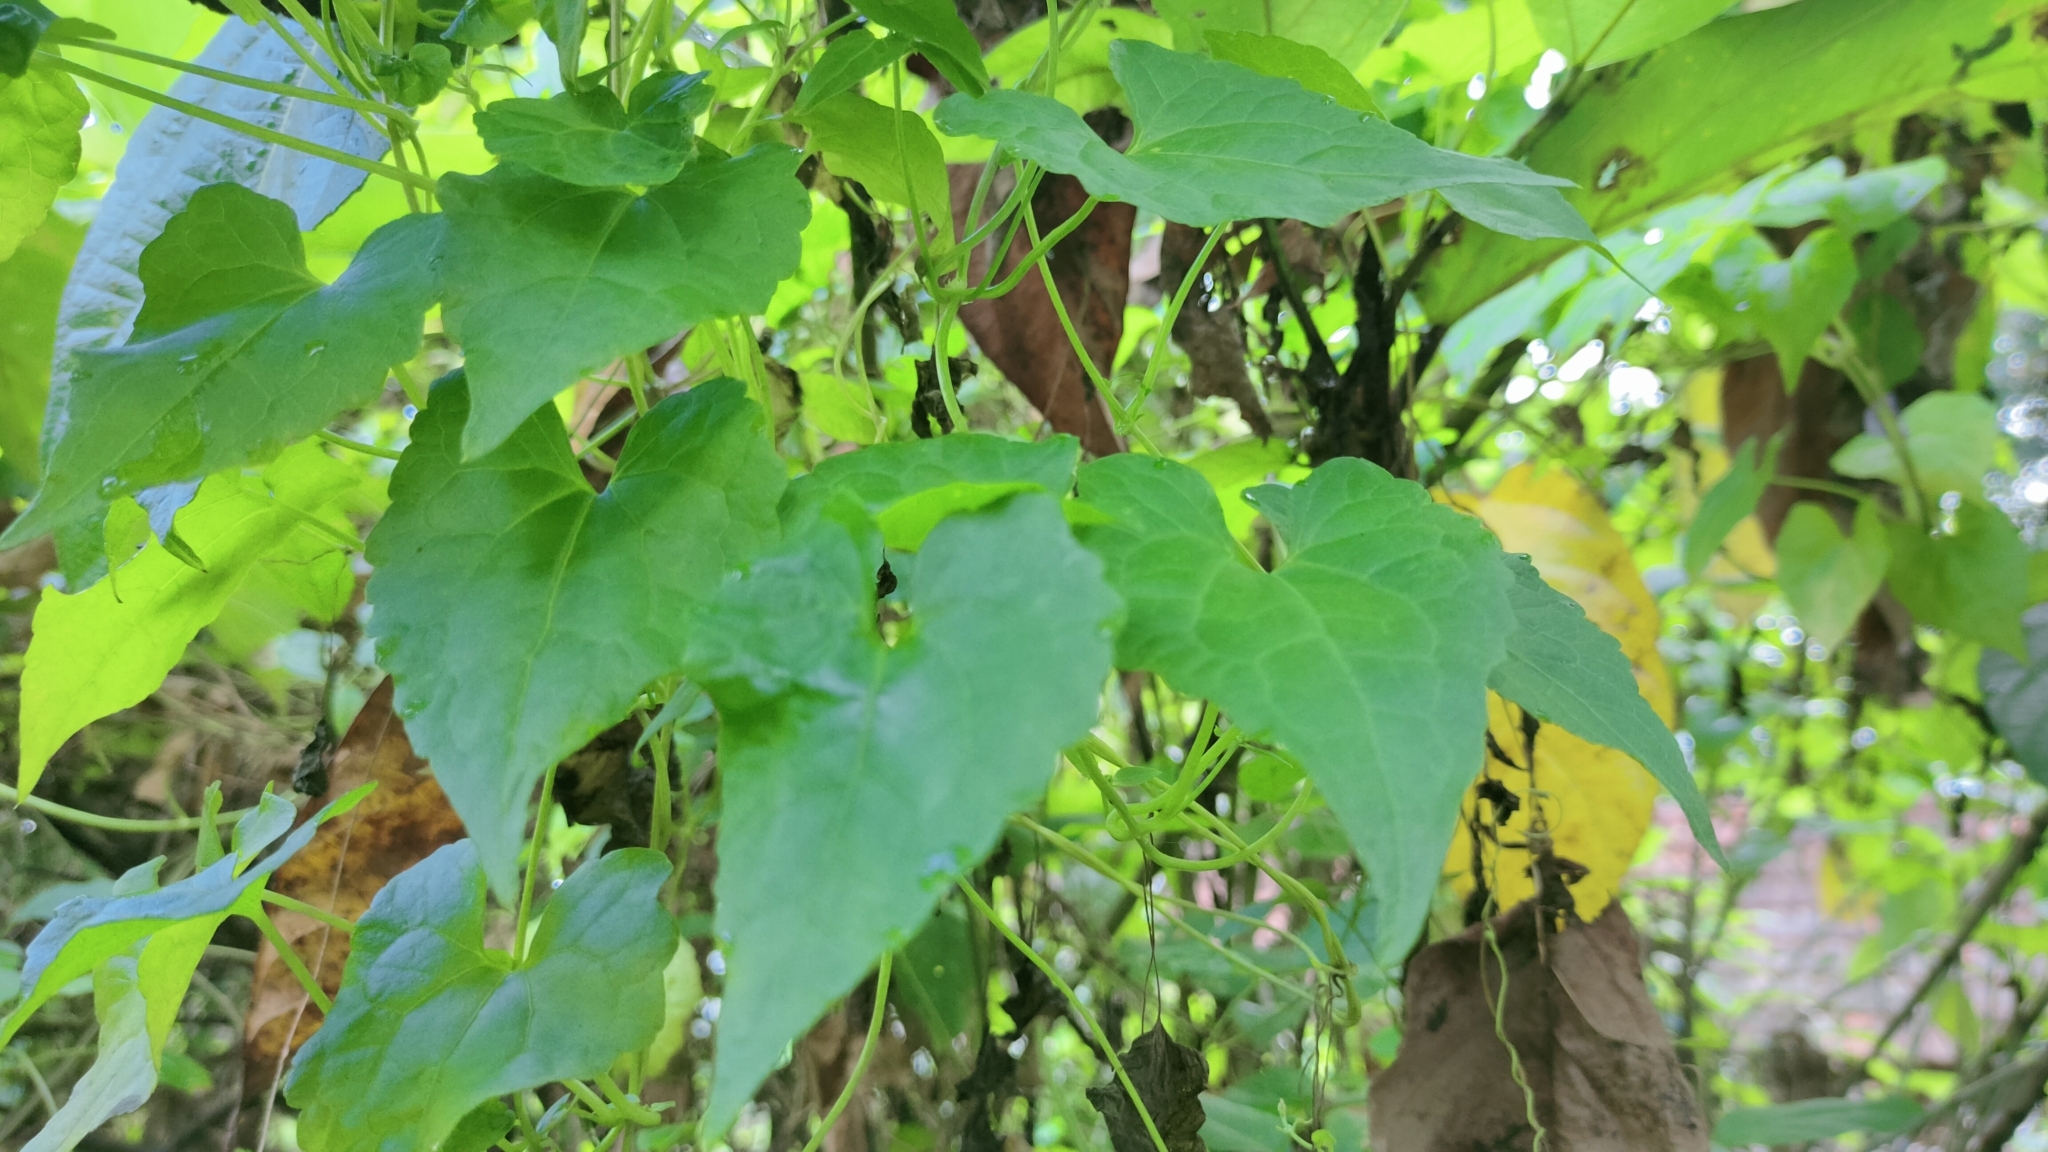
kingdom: Plantae
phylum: Tracheophyta
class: Magnoliopsida
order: Asterales
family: Asteraceae
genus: Mikania
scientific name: Mikania micrantha
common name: Mile-a-minute
